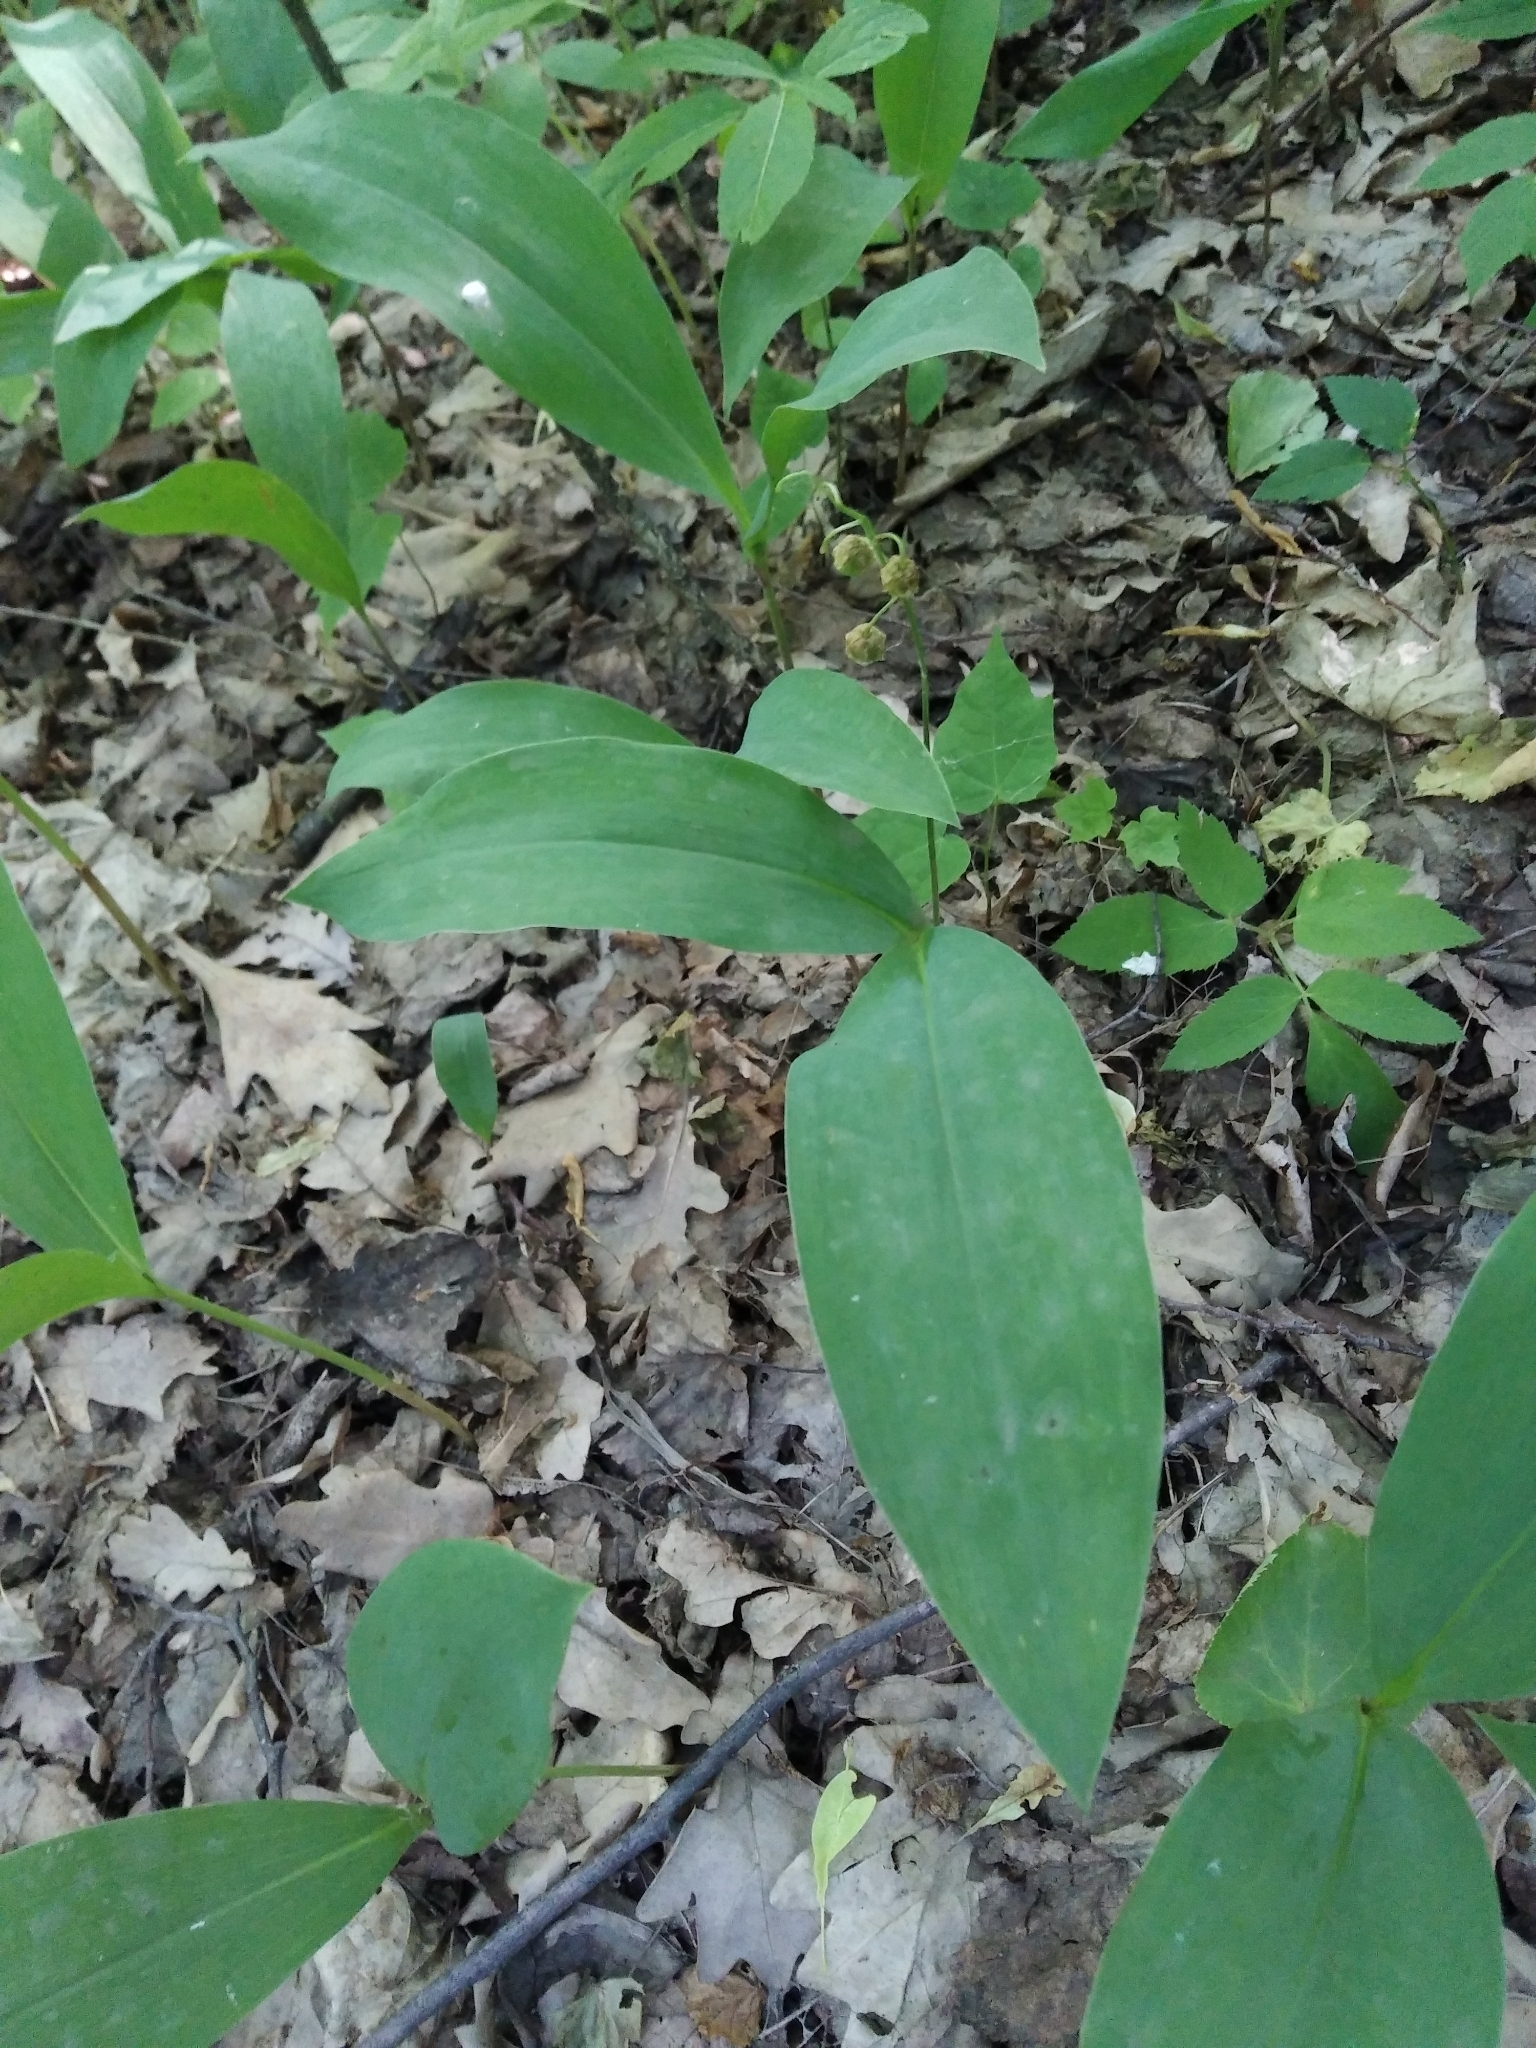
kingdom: Plantae
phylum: Tracheophyta
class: Liliopsida
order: Asparagales
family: Asparagaceae
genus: Convallaria
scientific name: Convallaria majalis
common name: Lily-of-the-valley
